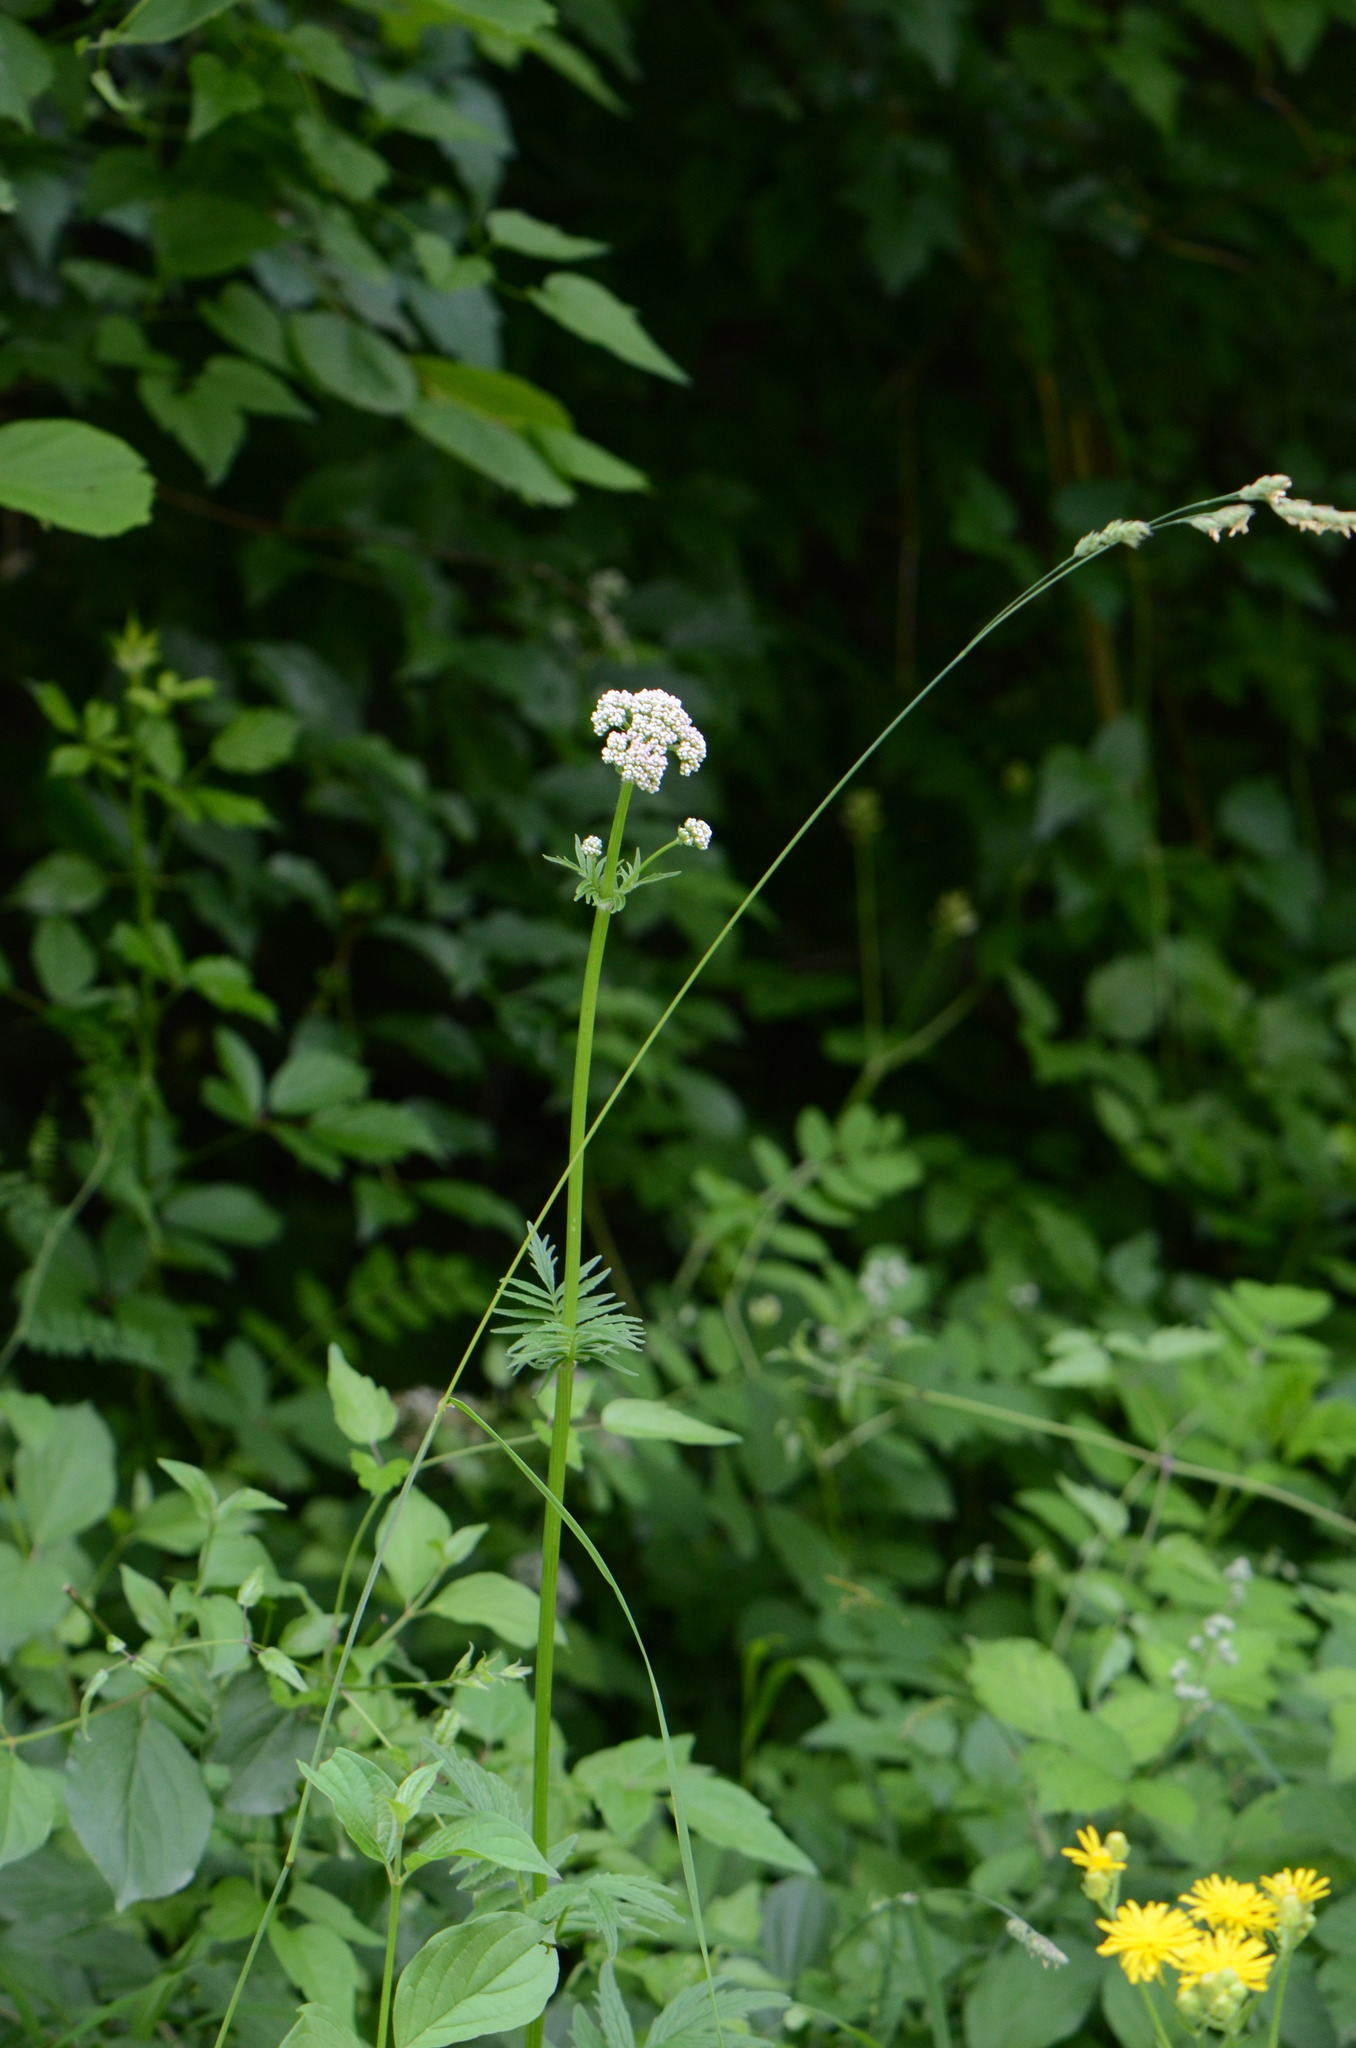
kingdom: Plantae
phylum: Tracheophyta
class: Magnoliopsida
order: Dipsacales
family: Caprifoliaceae
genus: Valeriana
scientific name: Valeriana officinalis
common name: Common valerian
